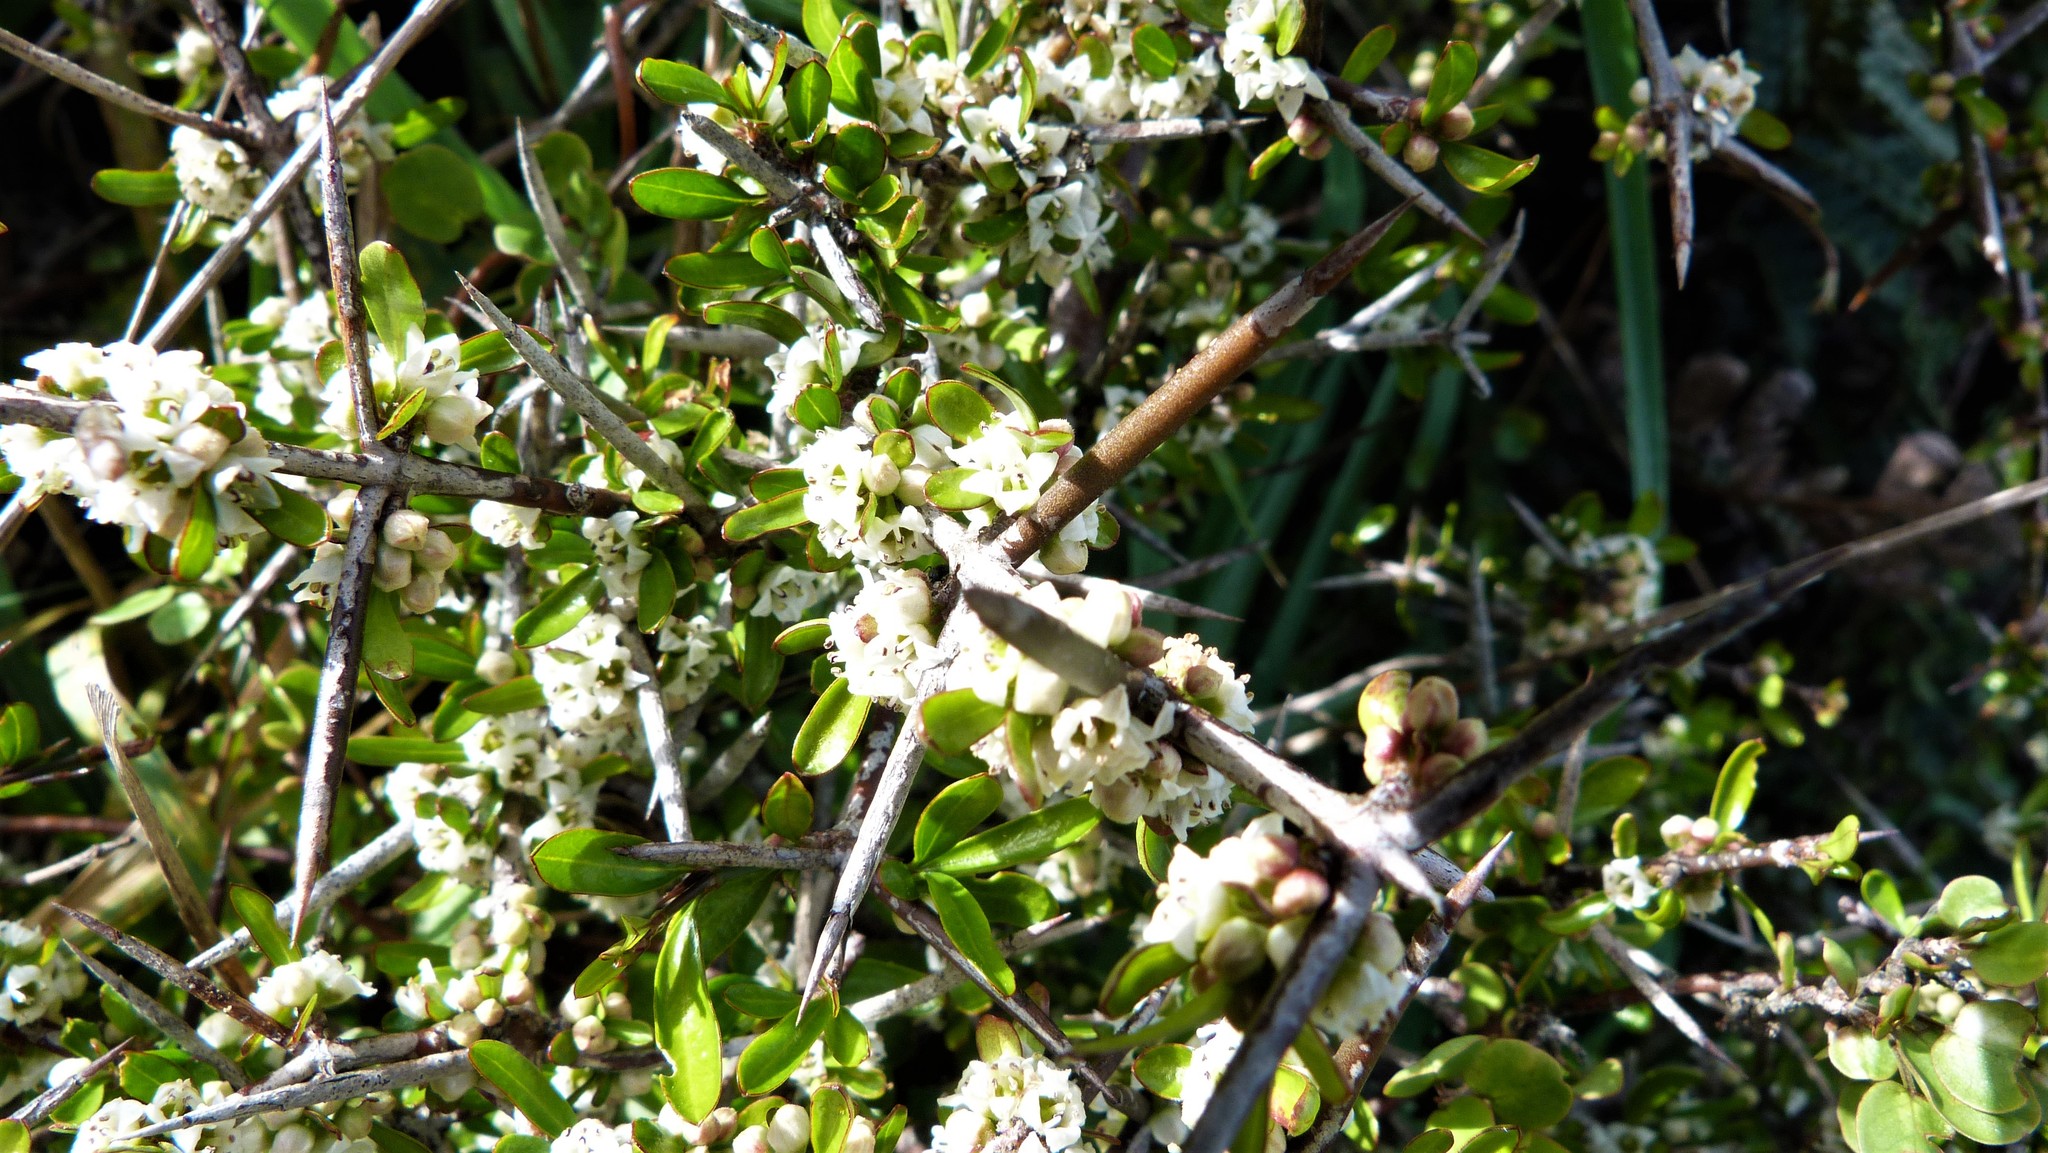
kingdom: Plantae
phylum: Tracheophyta
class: Magnoliopsida
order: Rosales
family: Rhamnaceae
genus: Discaria
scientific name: Discaria toumatou
